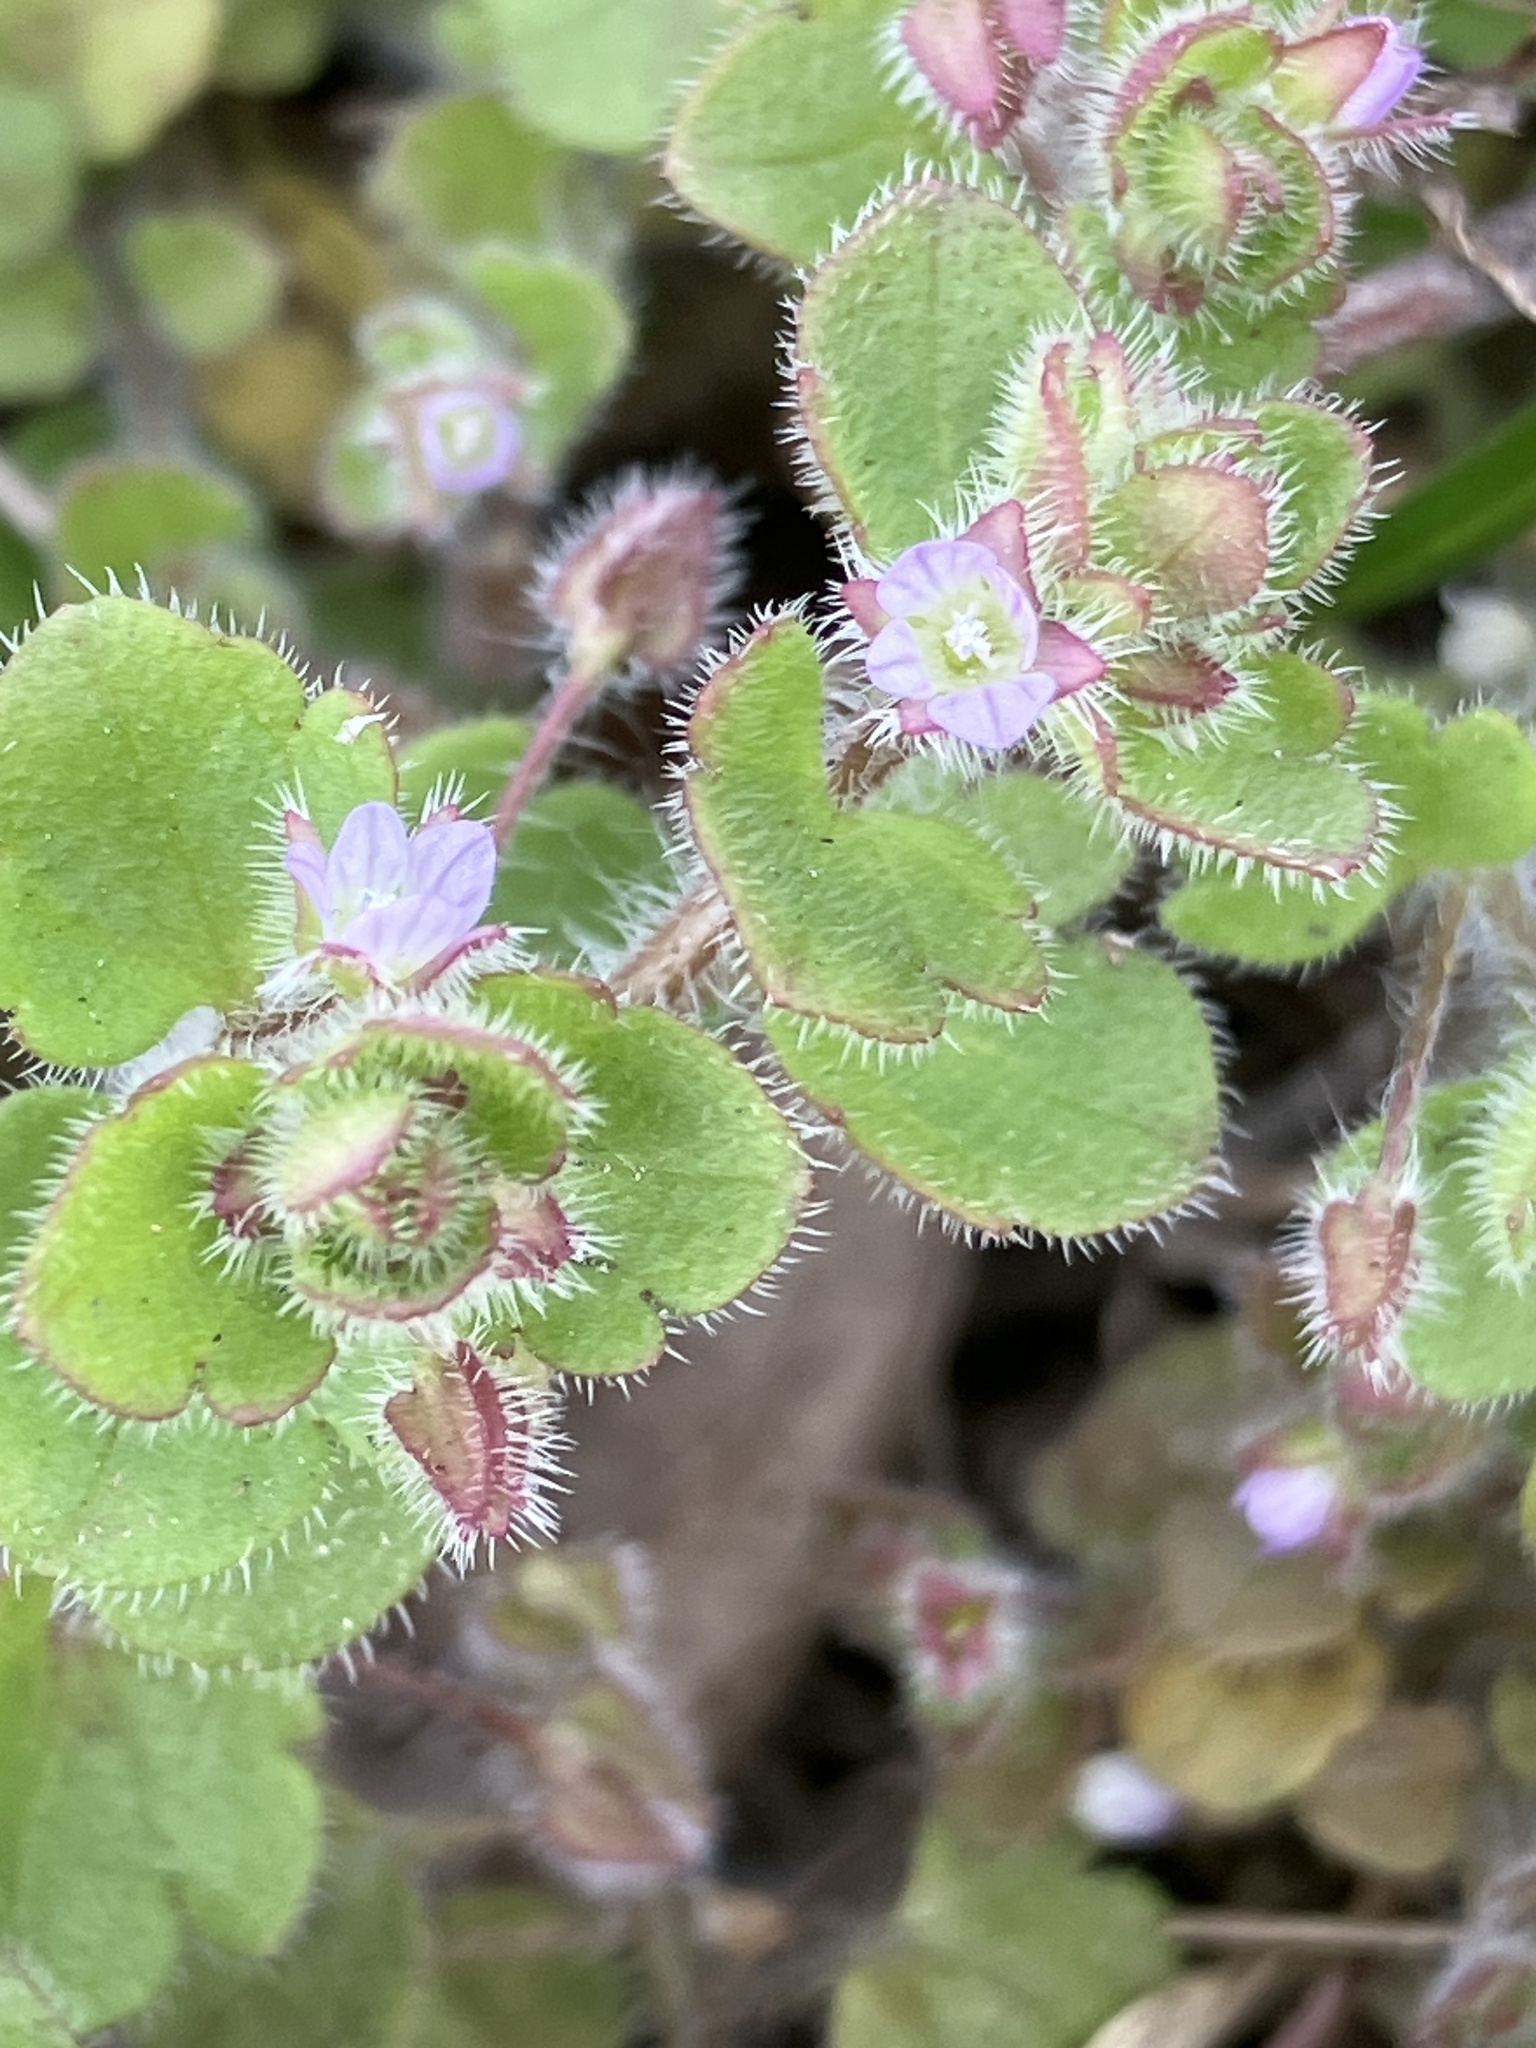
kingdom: Plantae
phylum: Tracheophyta
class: Magnoliopsida
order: Lamiales
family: Plantaginaceae
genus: Veronica
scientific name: Veronica sublobata
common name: False ivy-leaved speedwell
